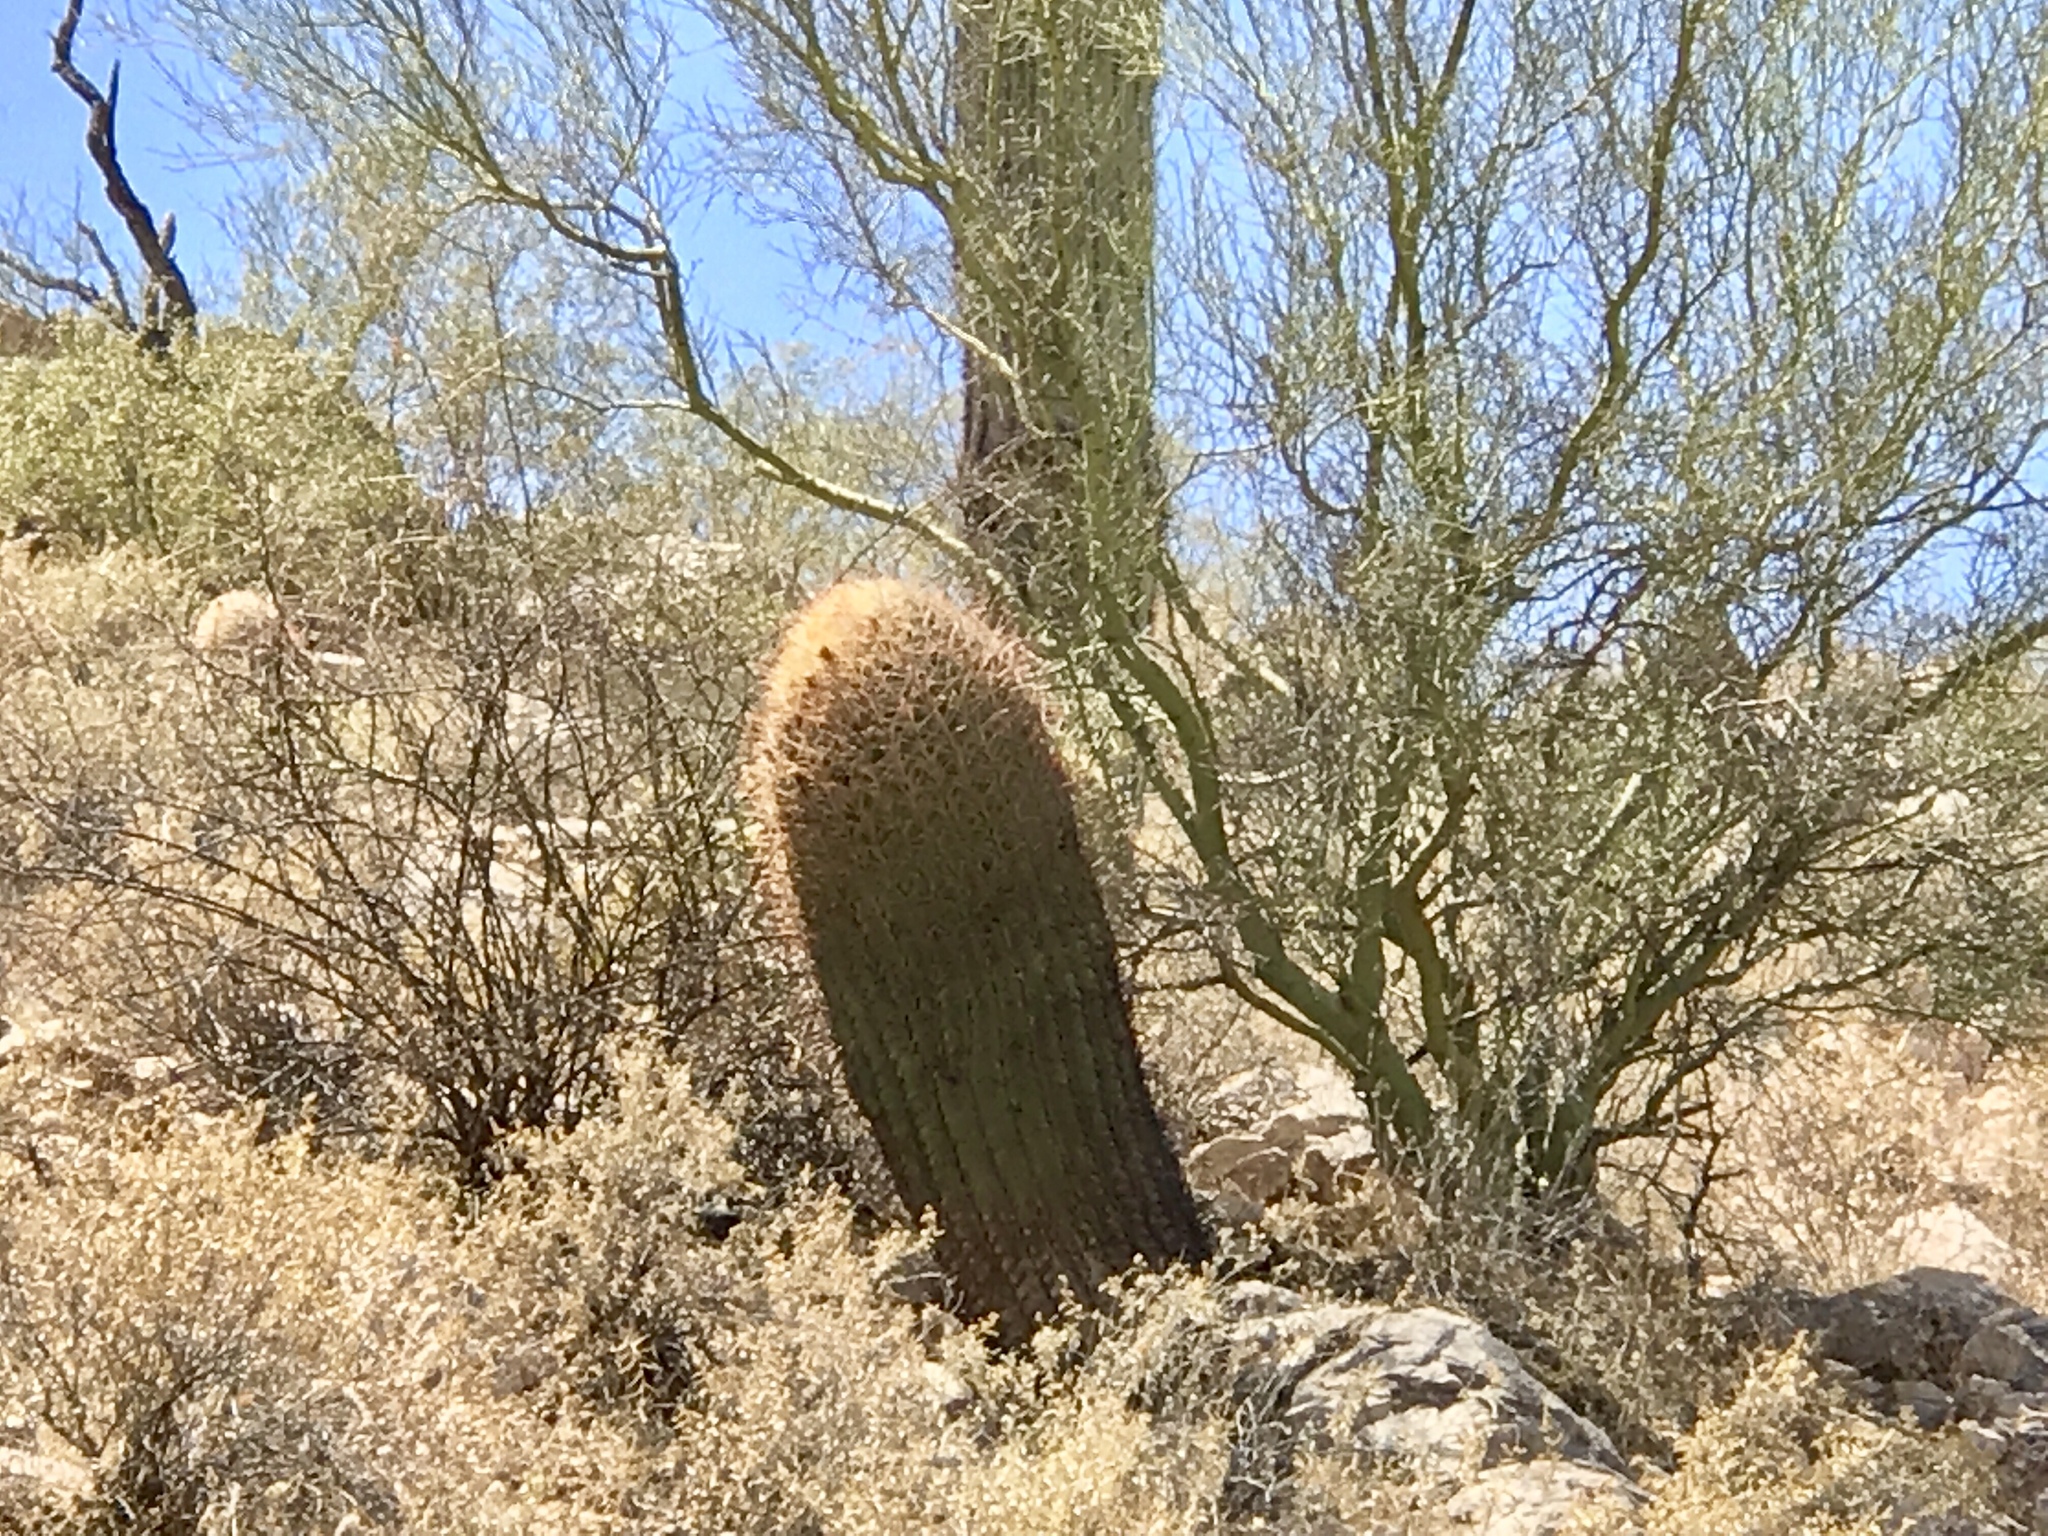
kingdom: Plantae
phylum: Tracheophyta
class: Magnoliopsida
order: Caryophyllales
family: Cactaceae
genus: Ferocactus
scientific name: Ferocactus wislizeni
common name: Candy barrel cactus
